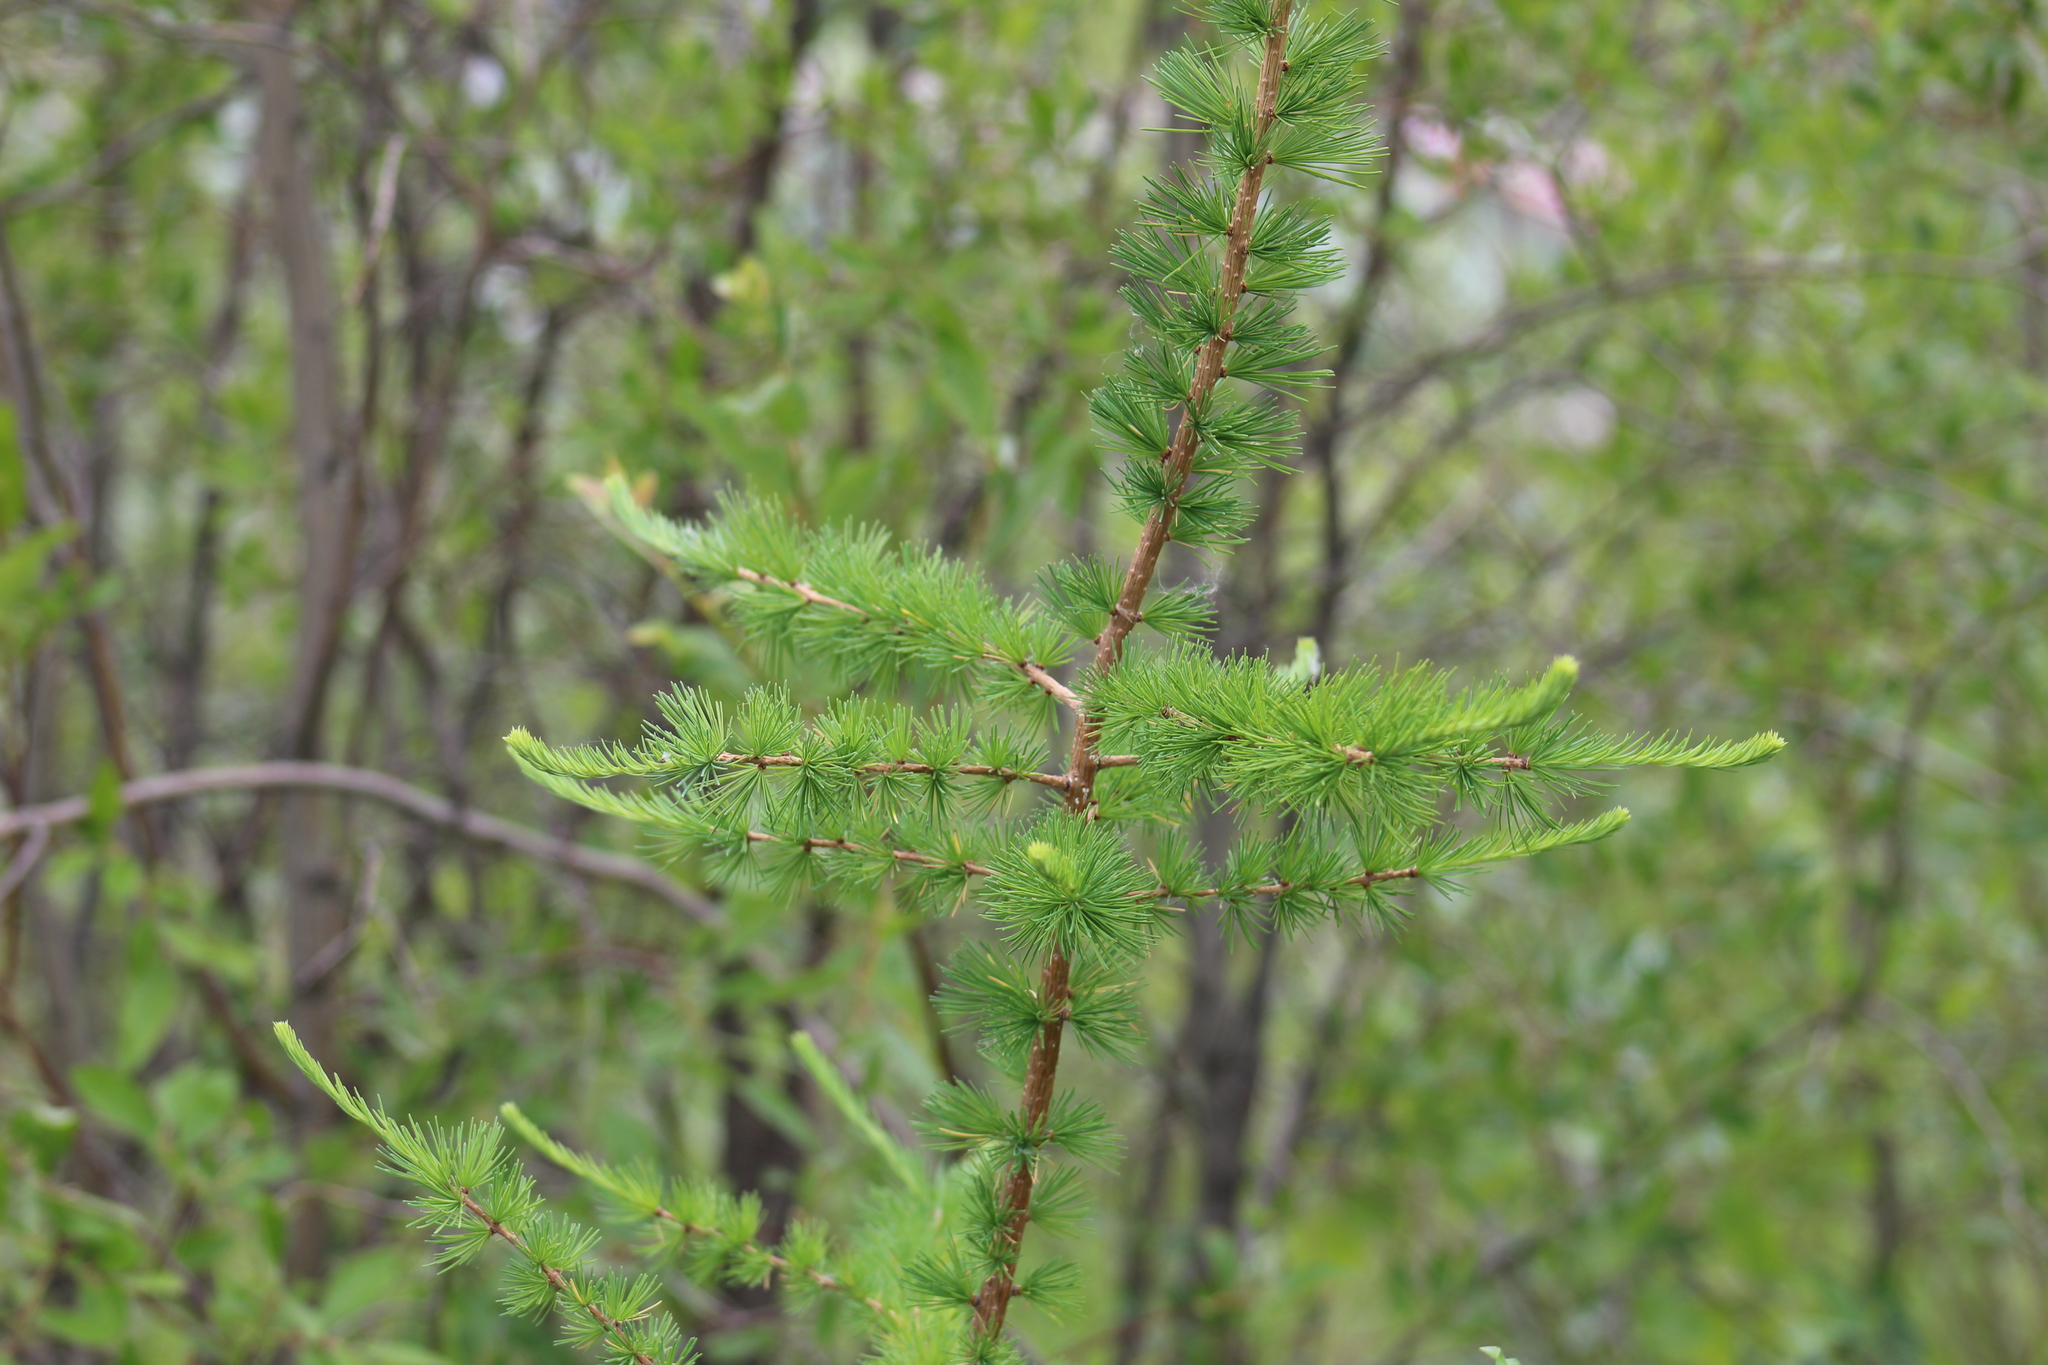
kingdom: Plantae
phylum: Tracheophyta
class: Pinopsida
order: Pinales
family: Pinaceae
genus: Larix
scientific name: Larix laricina
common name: American larch
